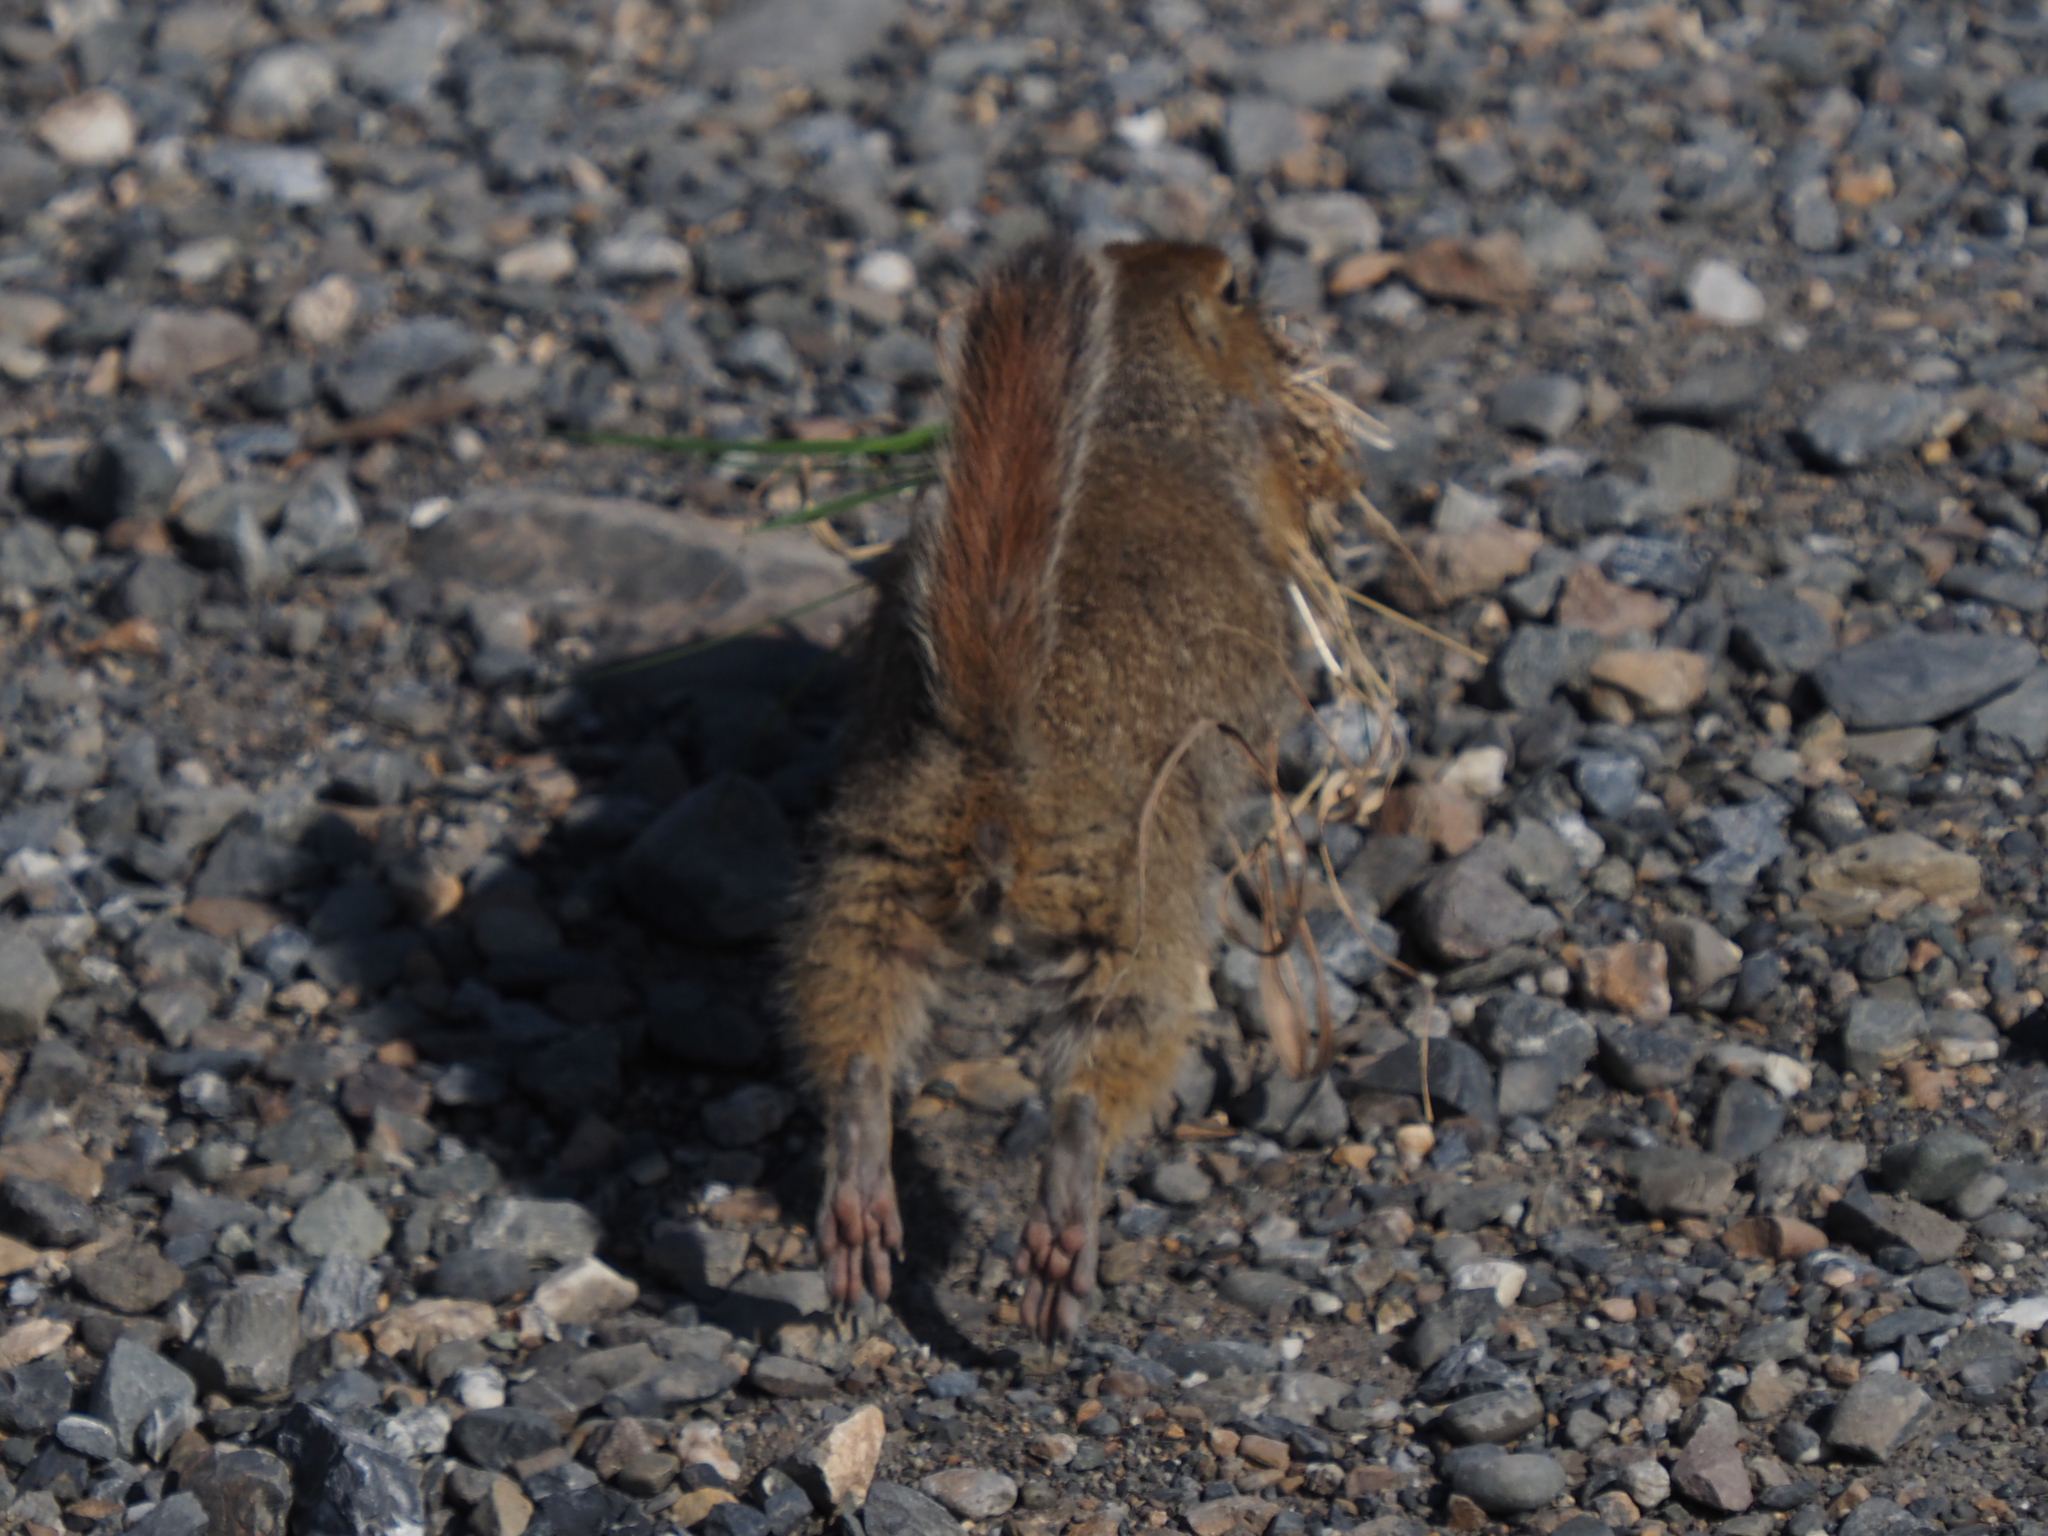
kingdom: Animalia
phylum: Chordata
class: Mammalia
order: Rodentia
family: Sciuridae
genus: Urocitellus
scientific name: Urocitellus parryii
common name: Arctic ground squirrel
